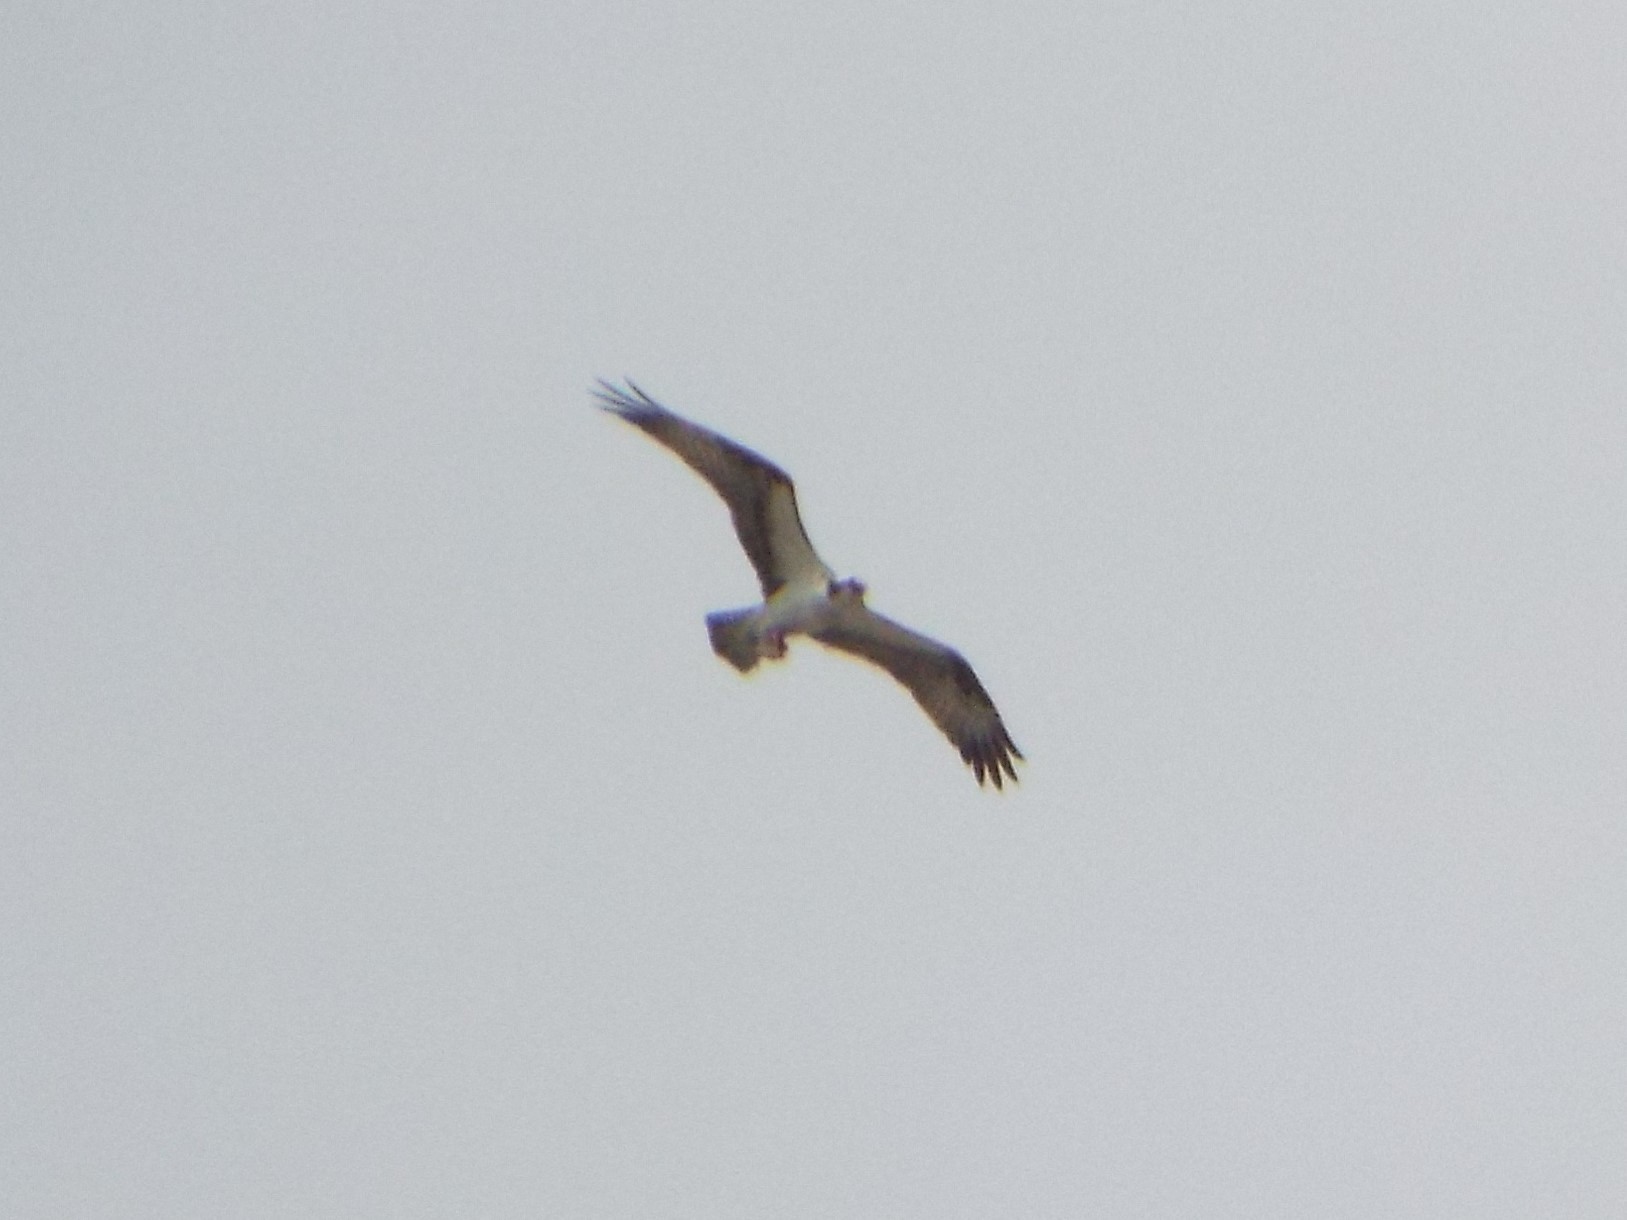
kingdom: Animalia
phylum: Chordata
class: Aves
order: Accipitriformes
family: Pandionidae
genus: Pandion
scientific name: Pandion haliaetus
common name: Osprey
